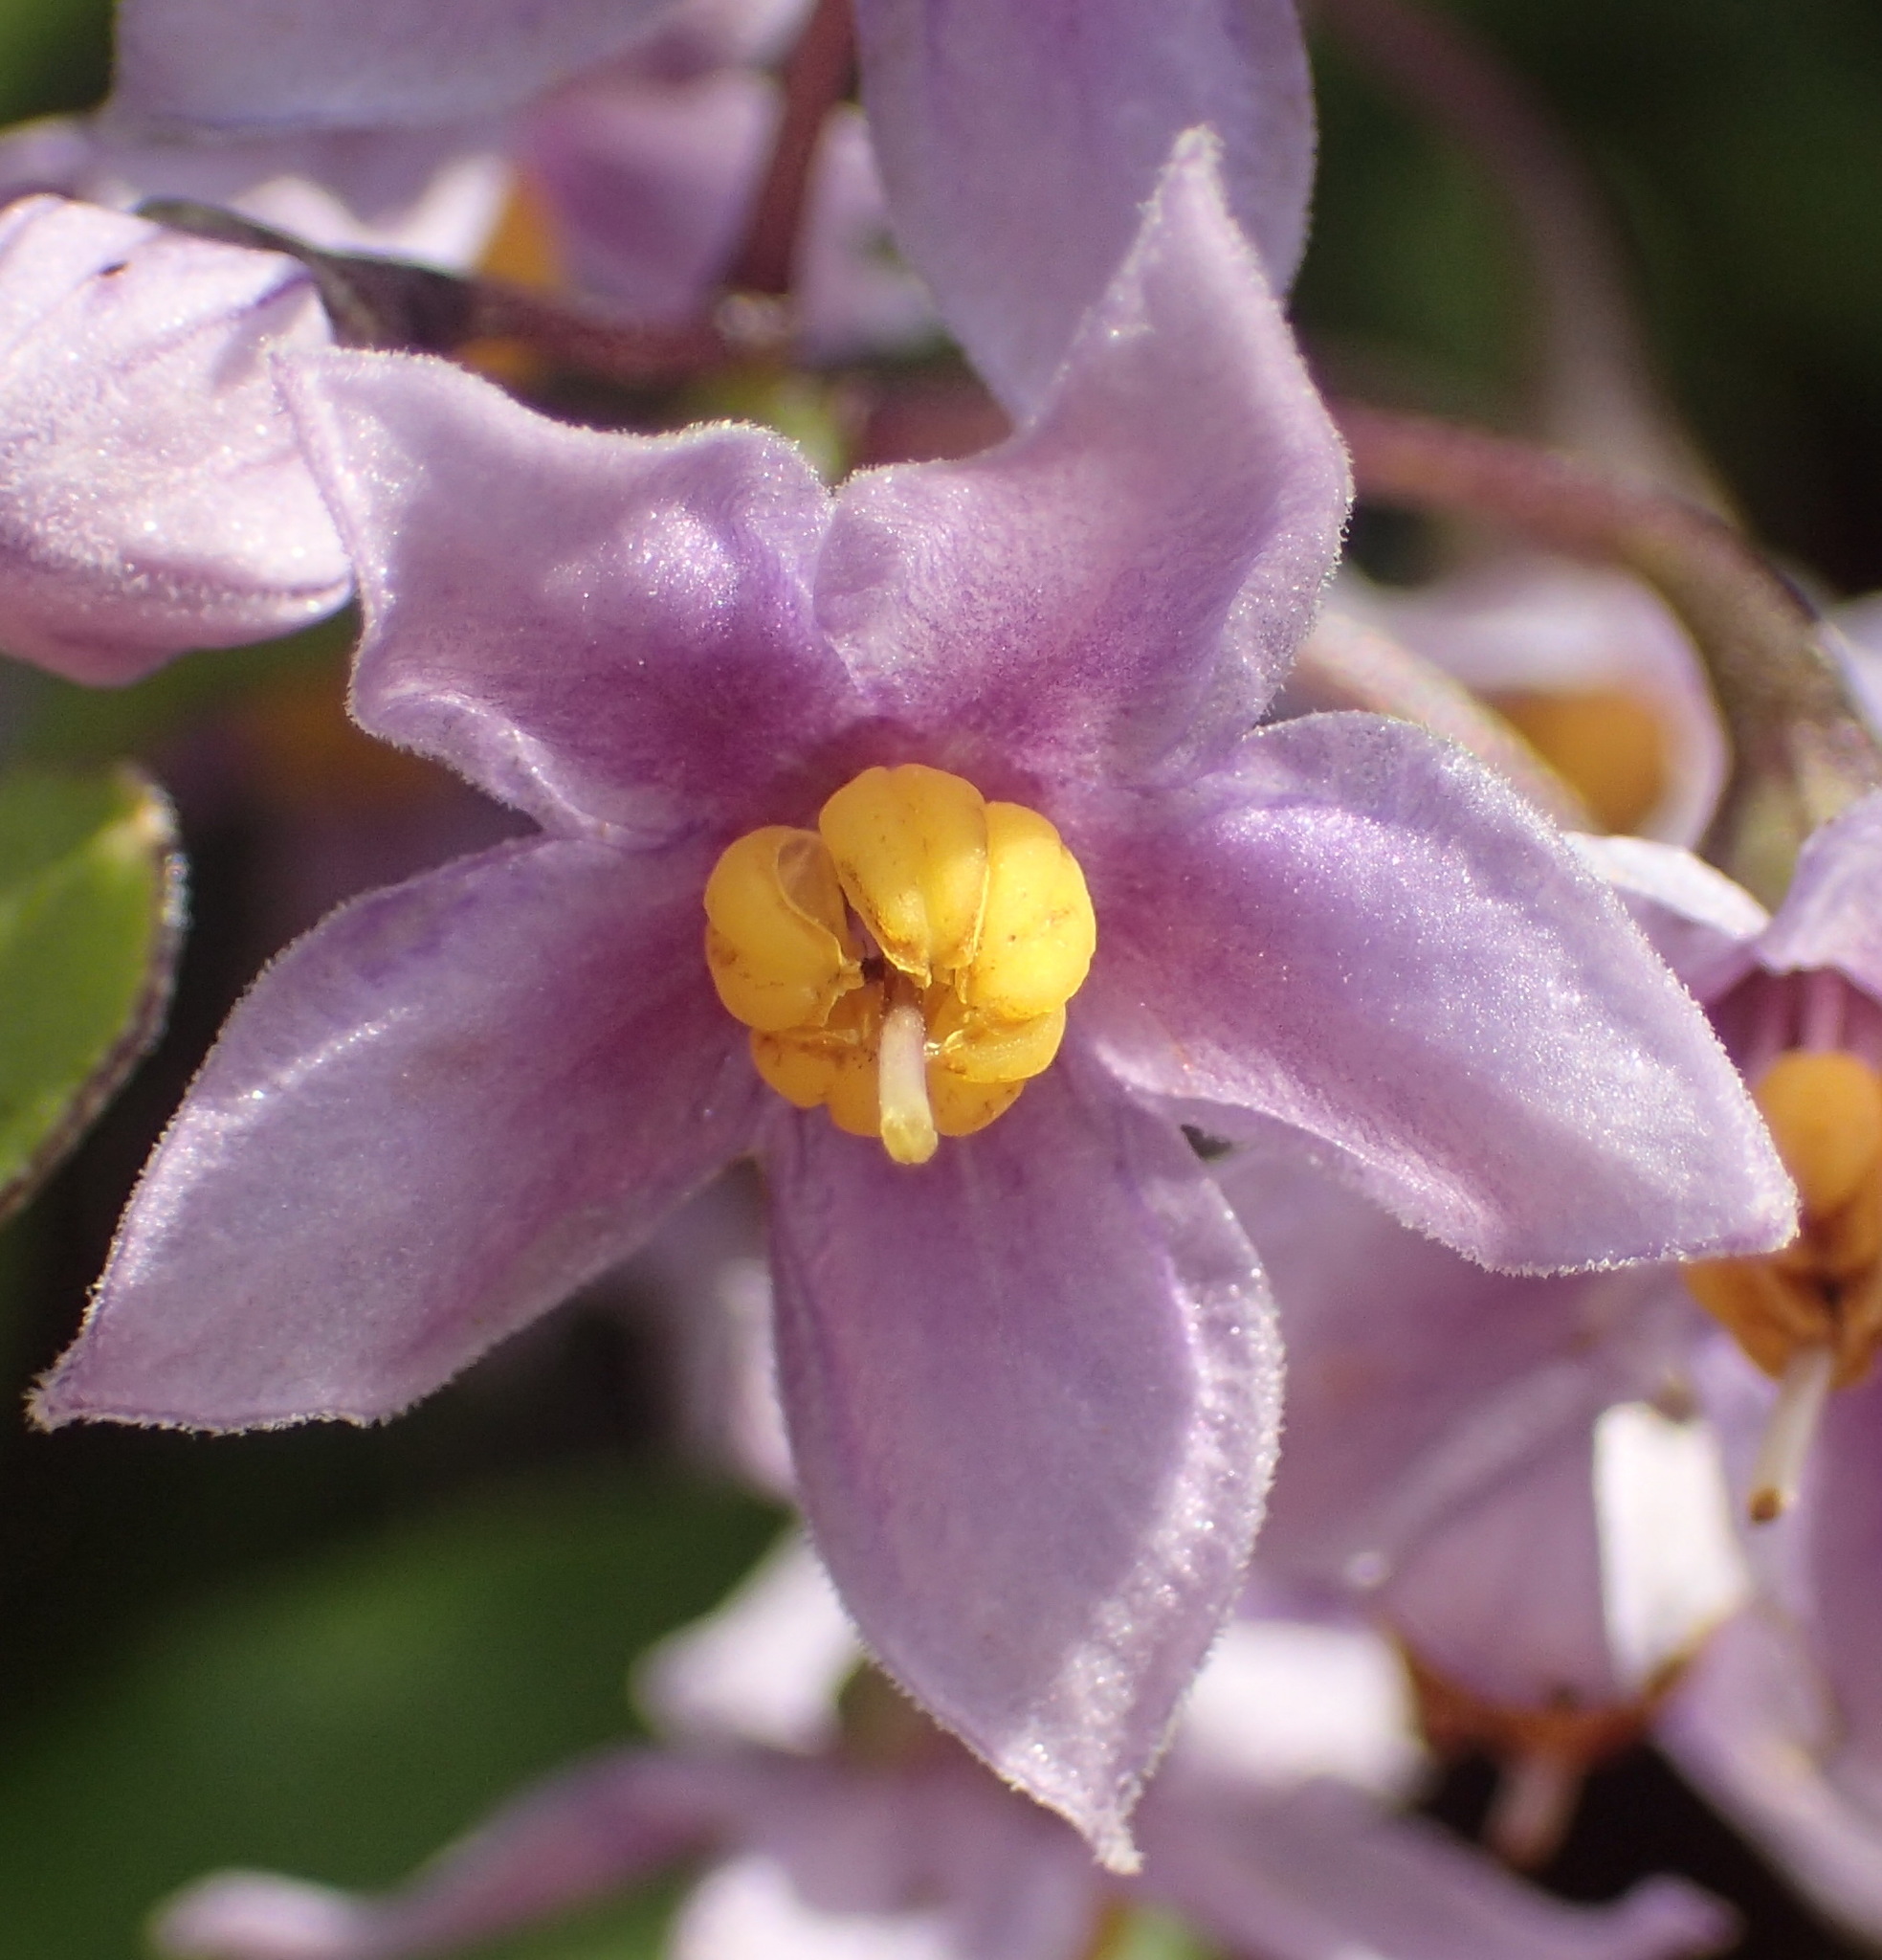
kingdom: Plantae
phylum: Tracheophyta
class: Magnoliopsida
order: Solanales
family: Solanaceae
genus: Solanum
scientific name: Solanum africanum
